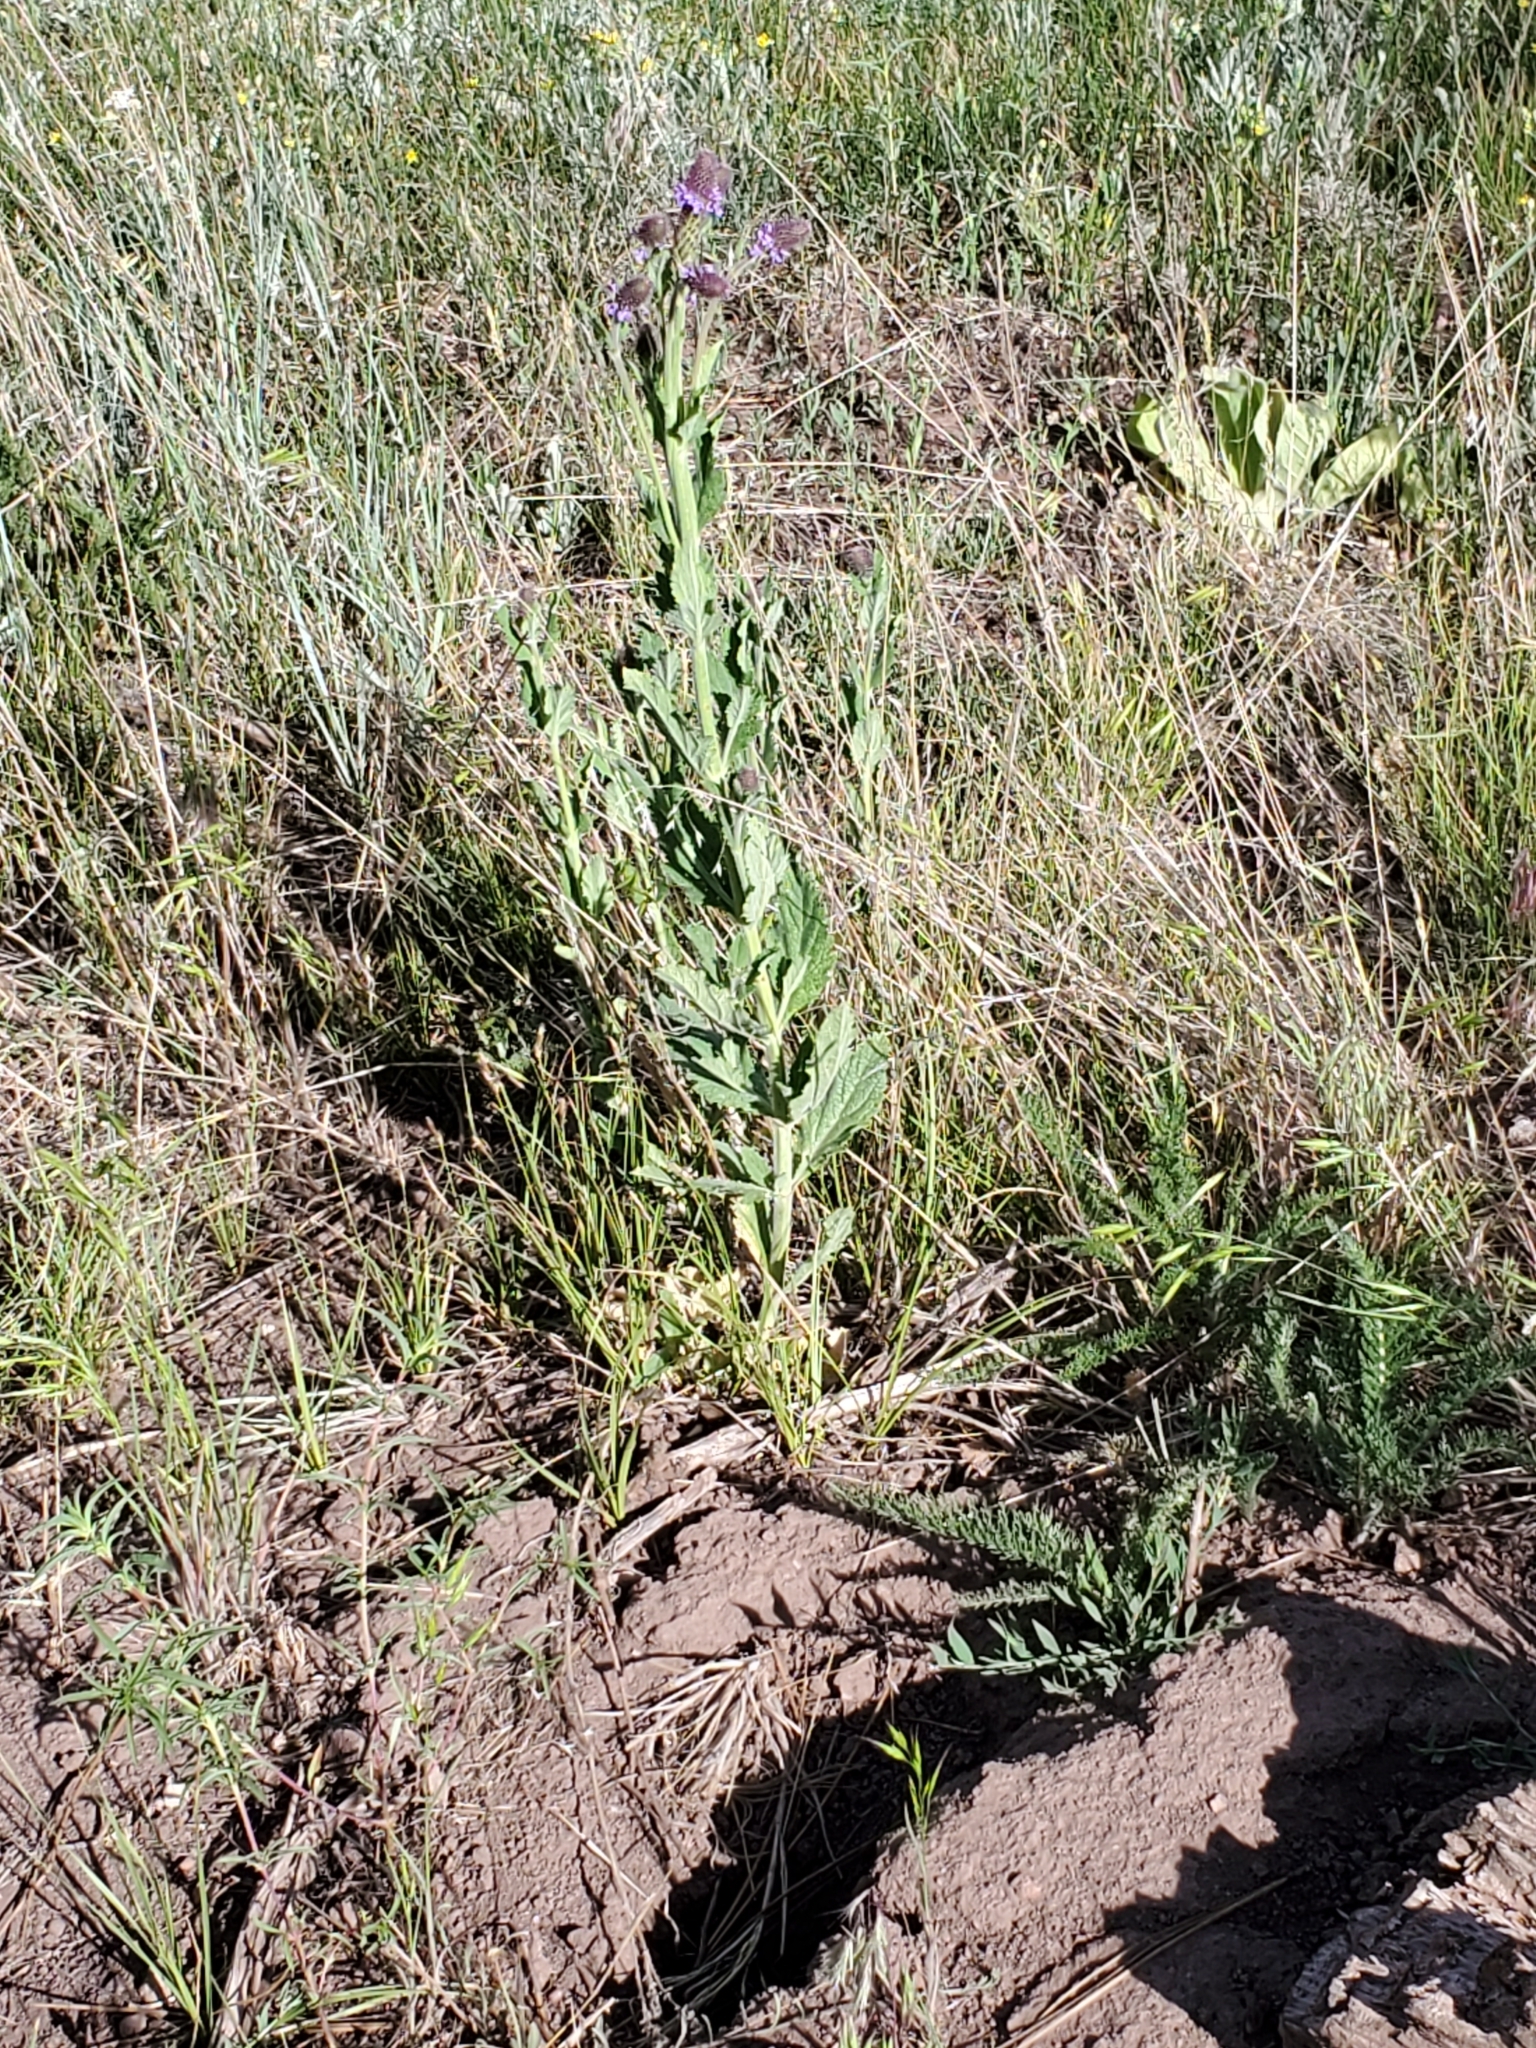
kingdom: Plantae
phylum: Tracheophyta
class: Magnoliopsida
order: Lamiales
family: Verbenaceae
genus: Verbena
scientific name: Verbena macdougalii
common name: New mexico vervain
